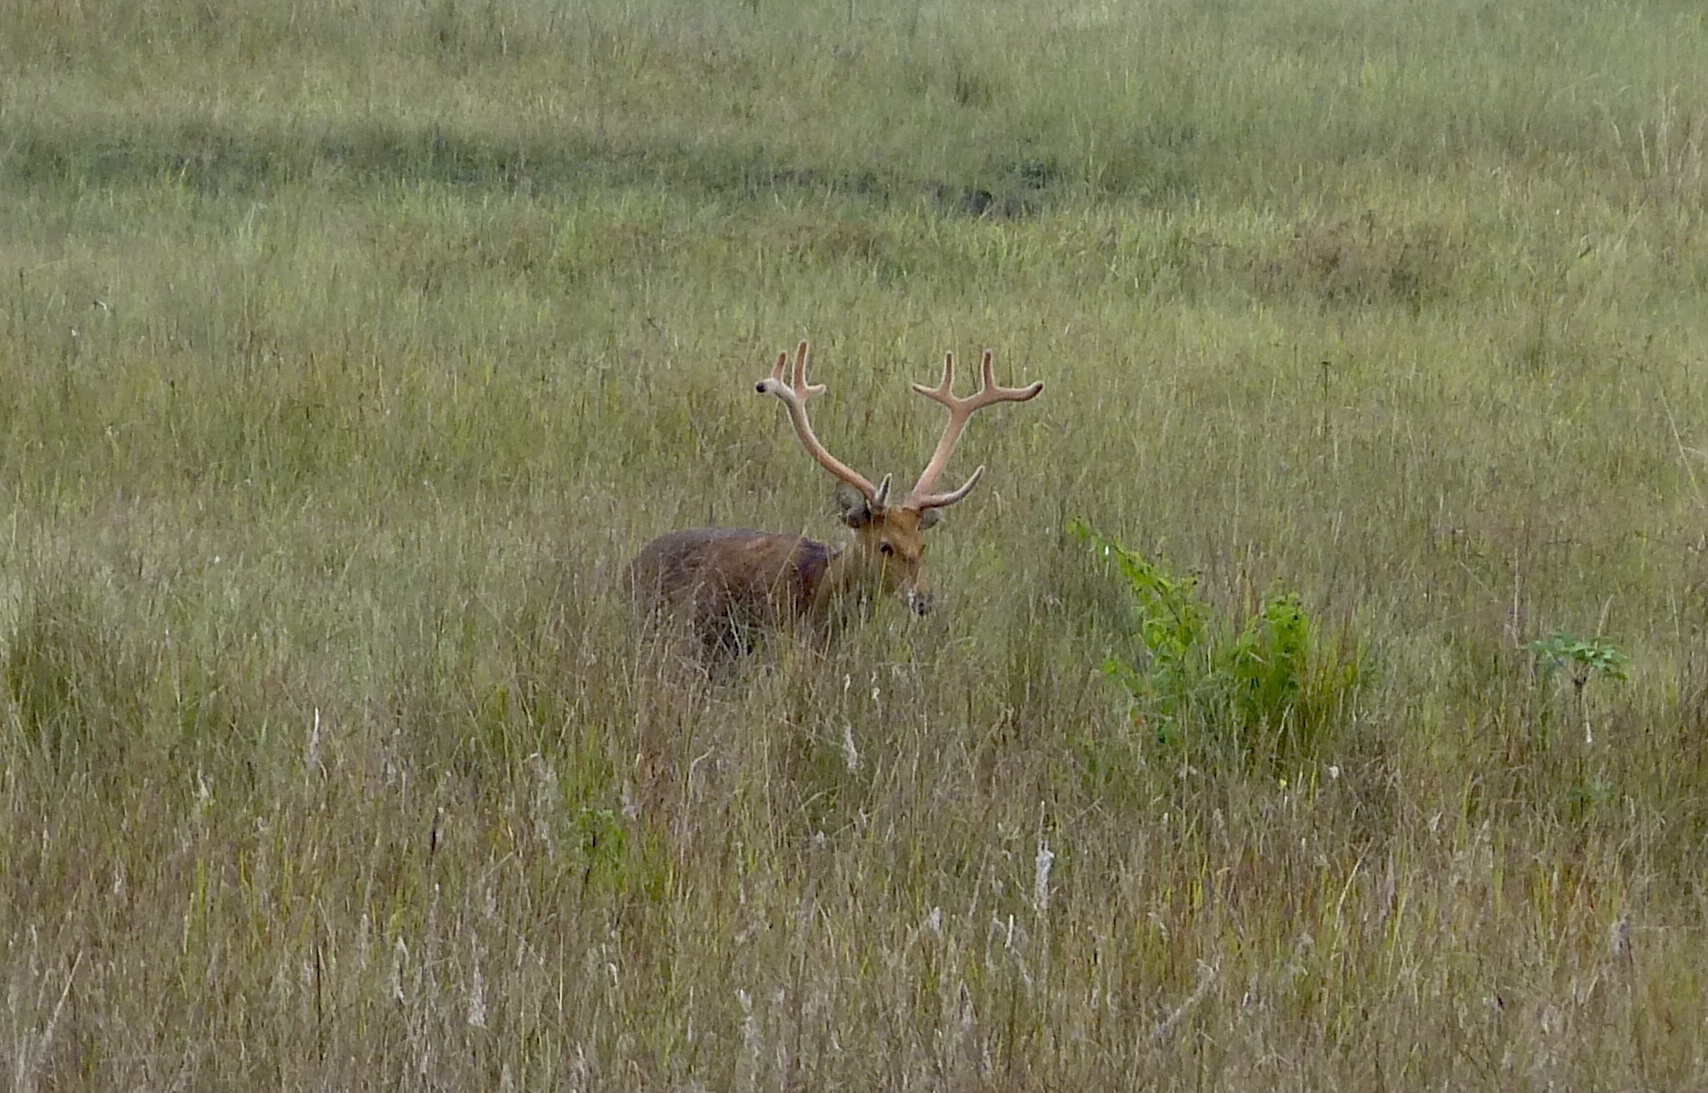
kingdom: Animalia
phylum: Chordata
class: Mammalia
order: Artiodactyla
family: Cervidae
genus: Rucervus
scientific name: Rucervus duvaucelii
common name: Barasingha
